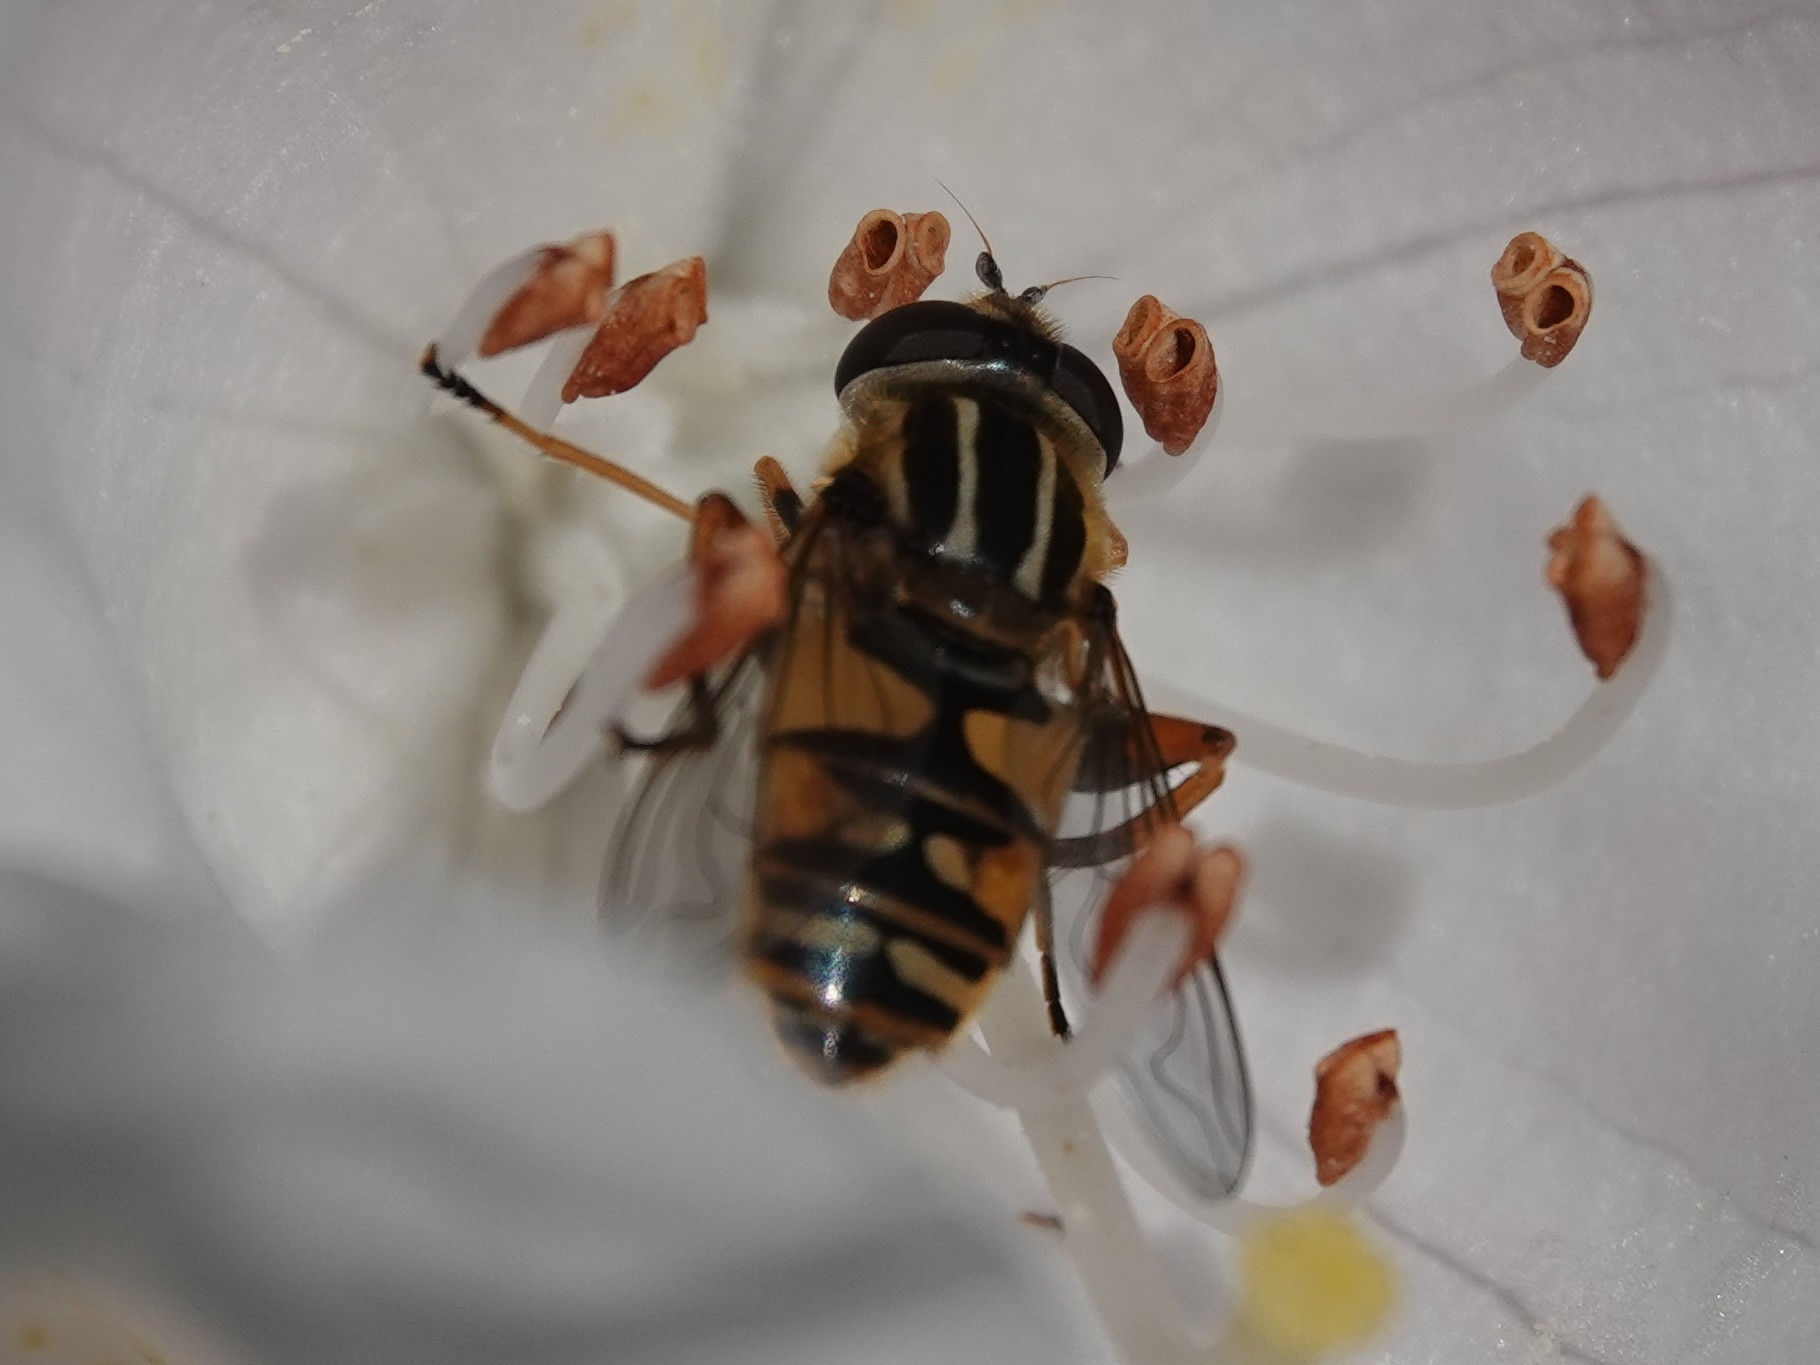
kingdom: Animalia
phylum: Arthropoda
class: Insecta
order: Diptera
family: Syrphidae
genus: Helophilus
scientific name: Helophilus pendulus
